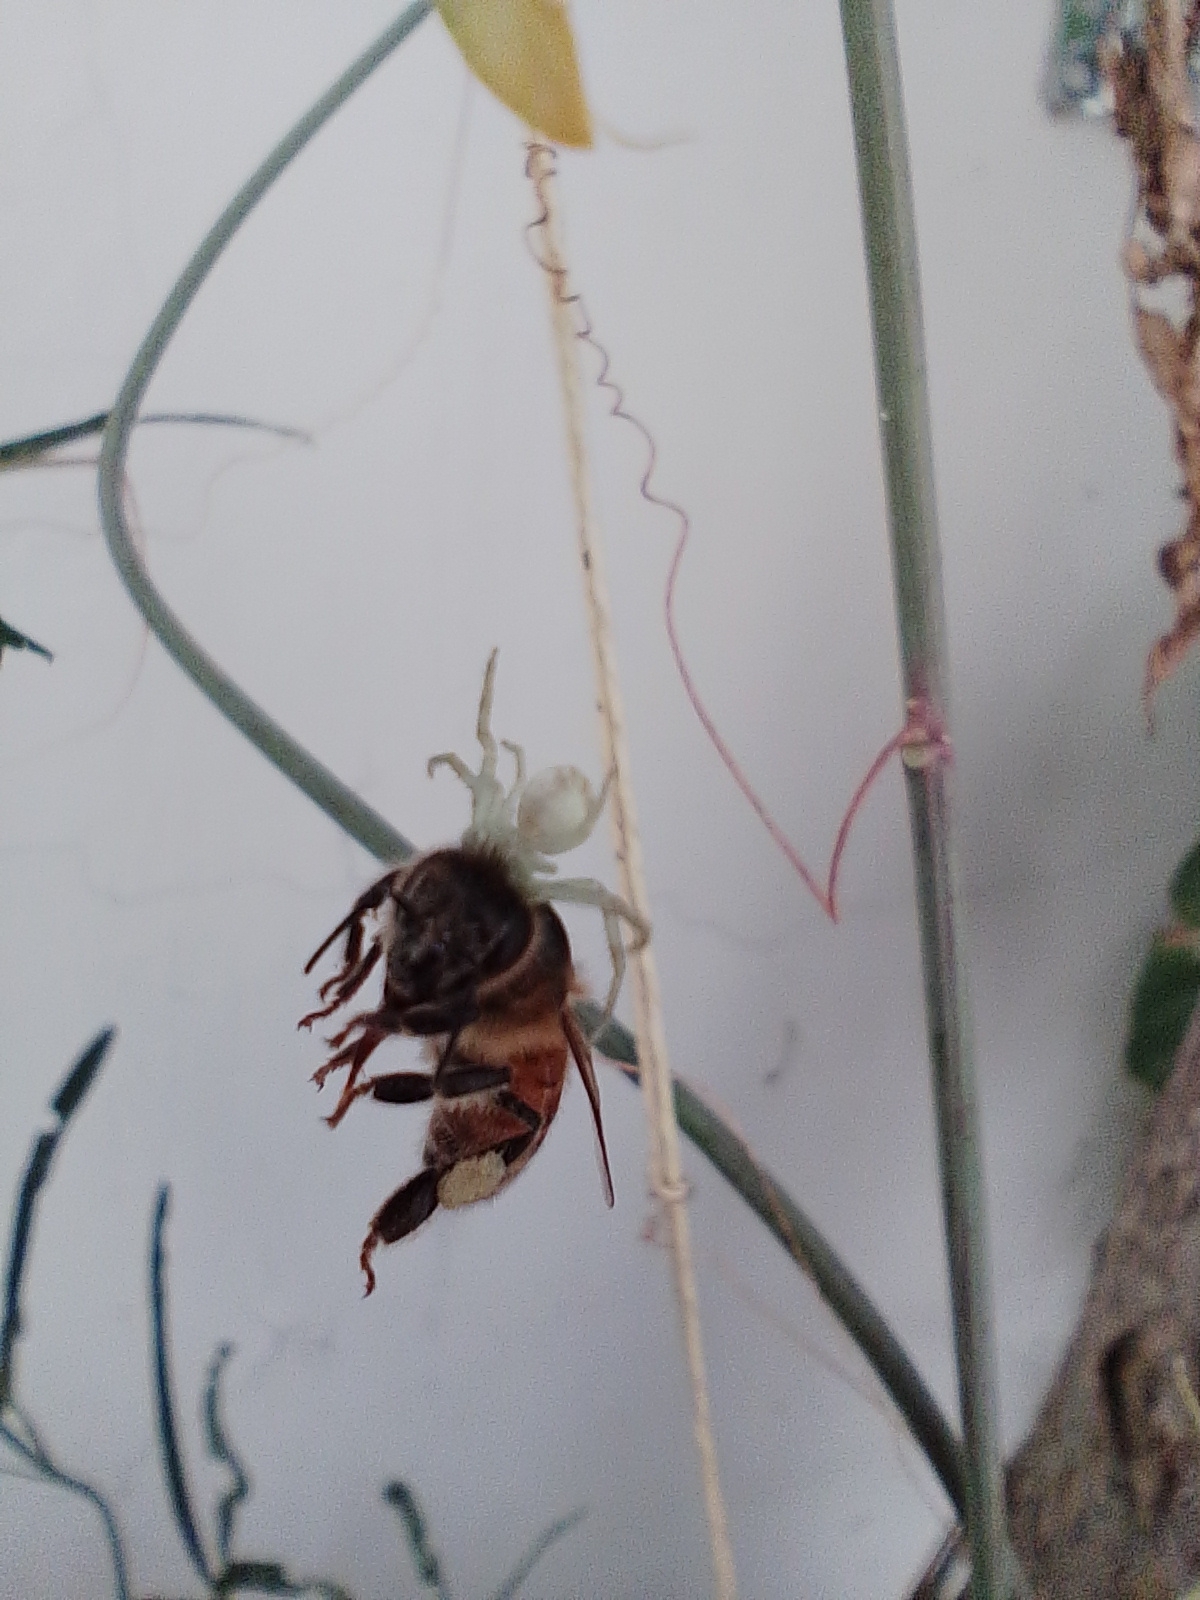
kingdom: Animalia
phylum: Arthropoda
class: Insecta
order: Hymenoptera
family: Apidae
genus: Apis
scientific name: Apis mellifera
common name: Honey bee
